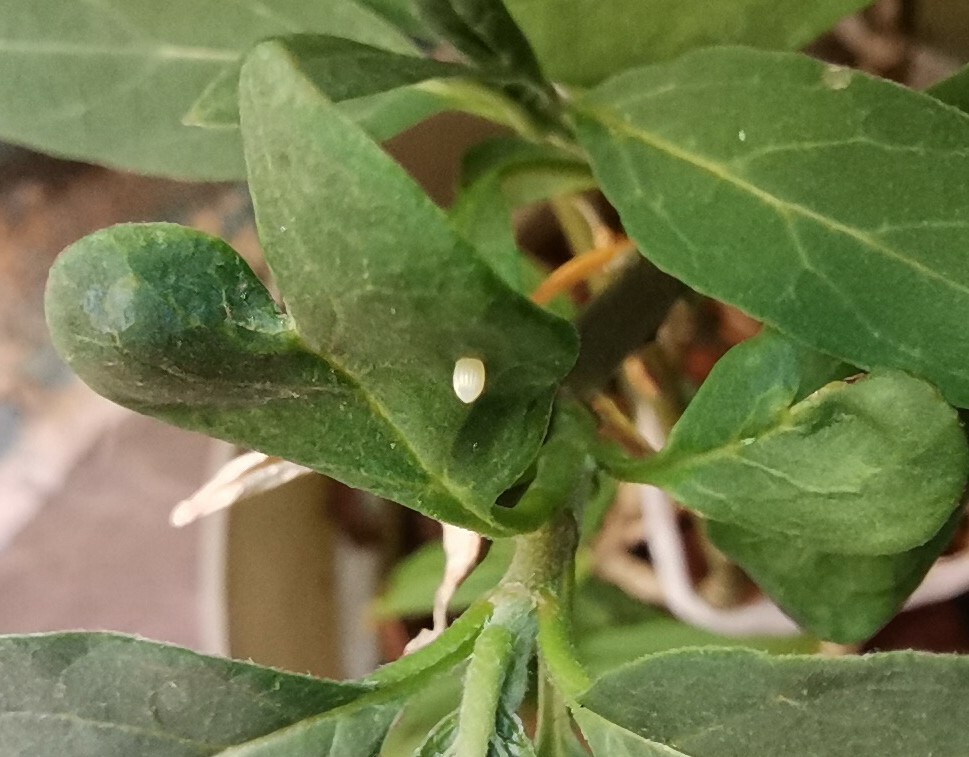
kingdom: Animalia
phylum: Arthropoda
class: Insecta
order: Lepidoptera
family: Nymphalidae
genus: Danaus
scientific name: Danaus plexippus
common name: Monarch
